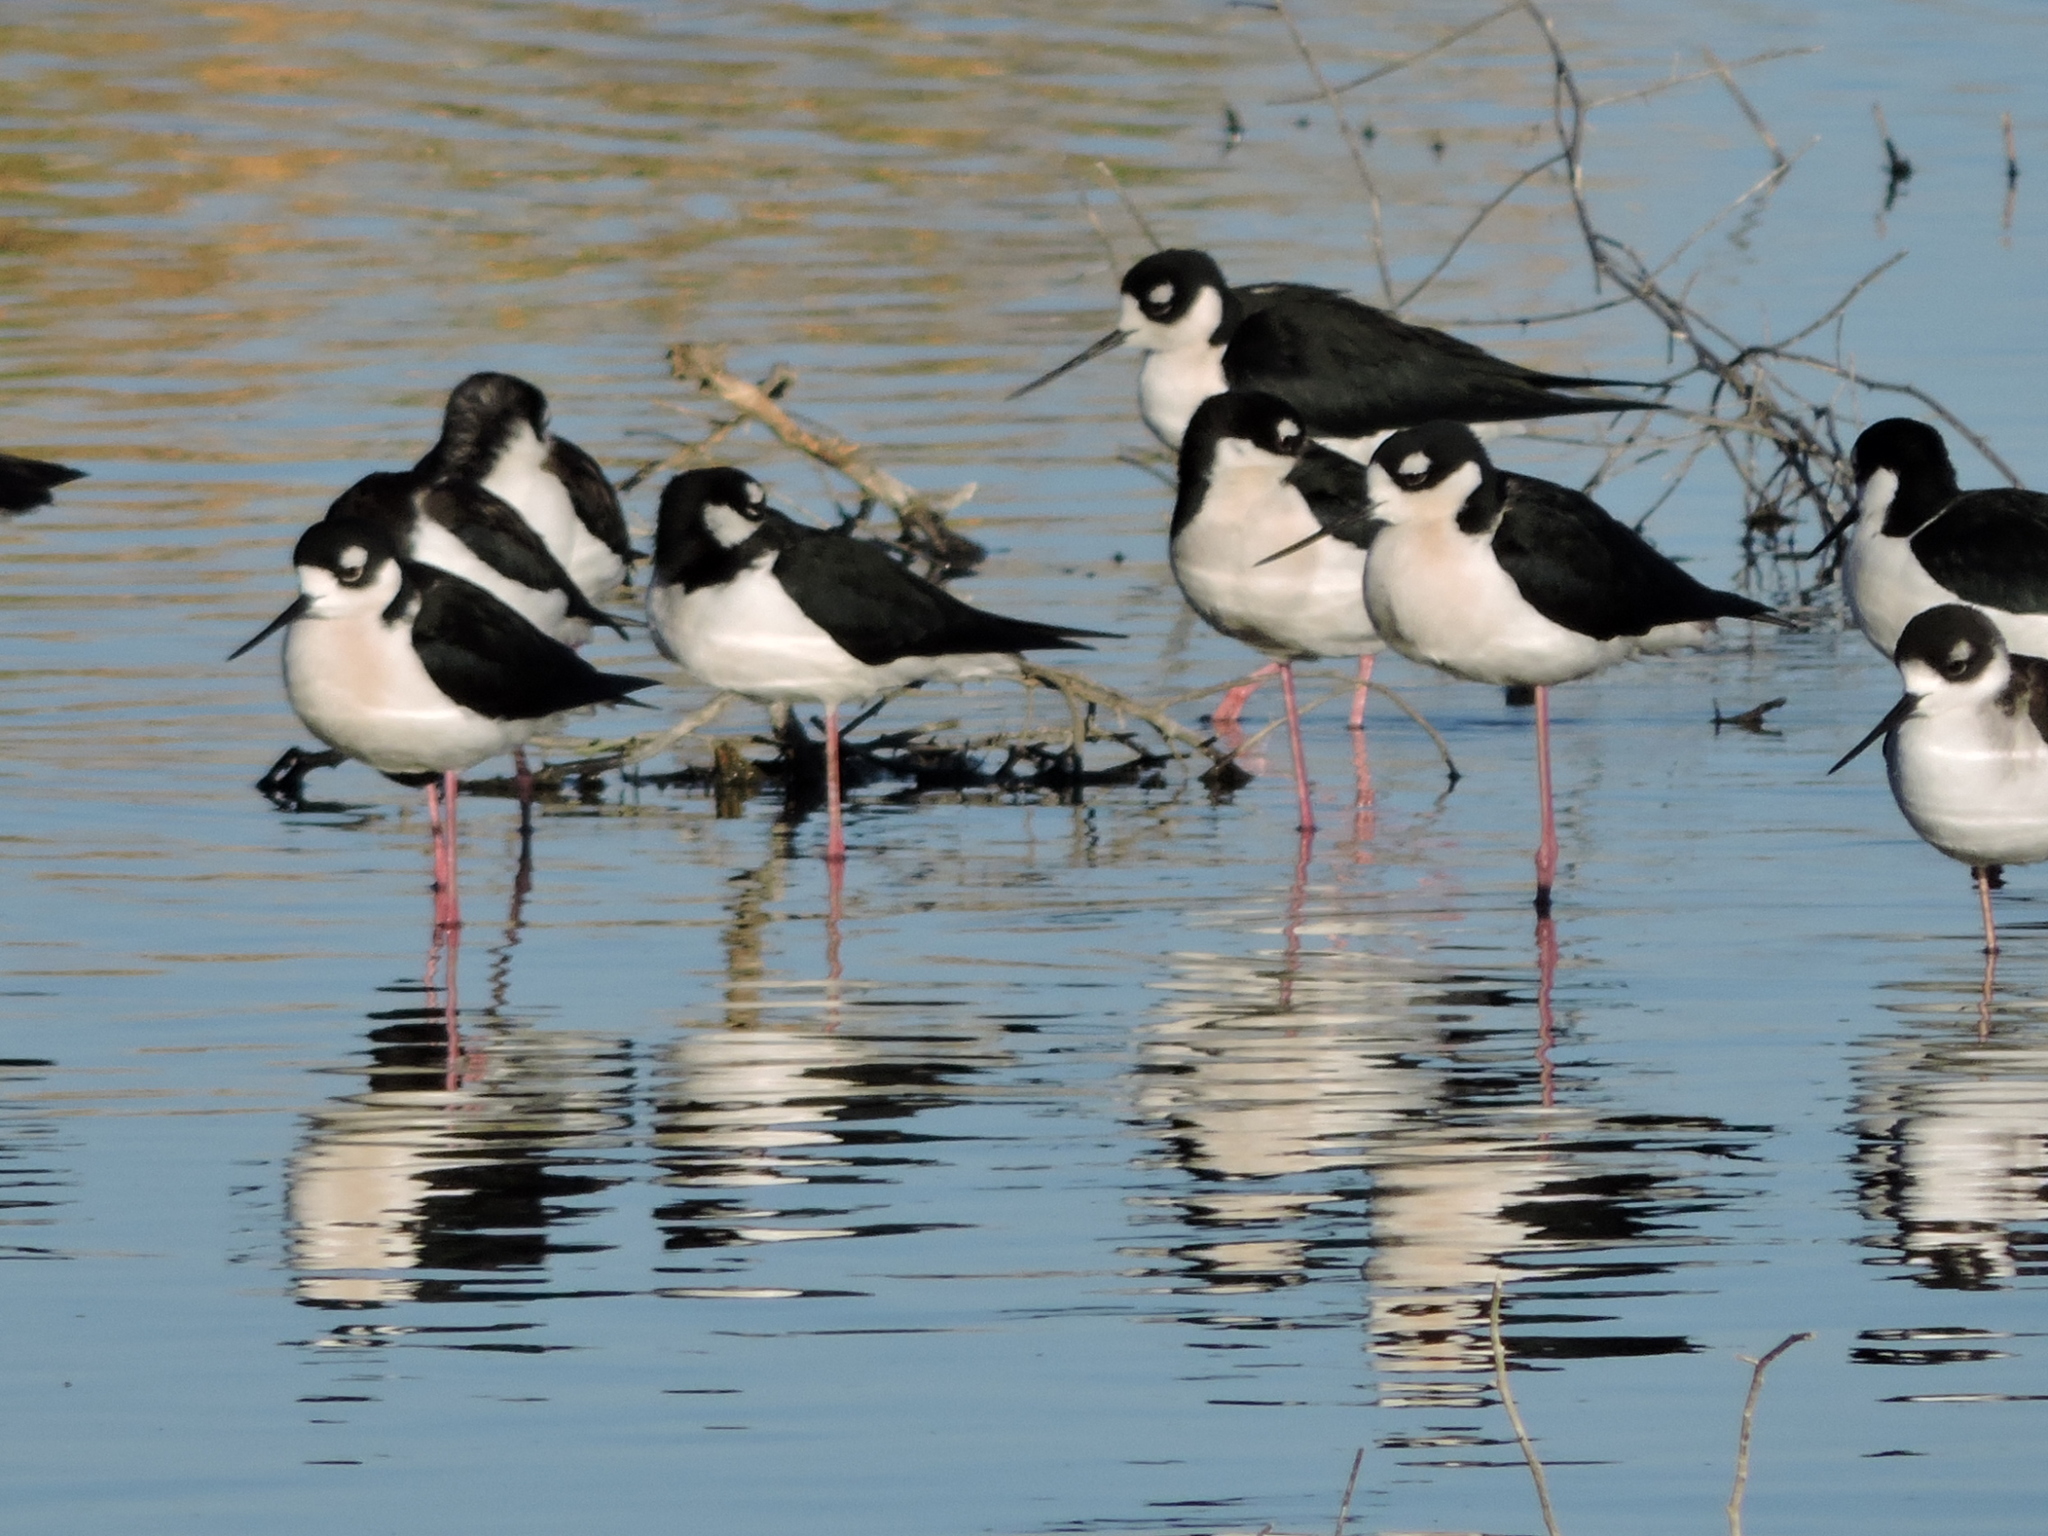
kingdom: Animalia
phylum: Chordata
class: Aves
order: Charadriiformes
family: Recurvirostridae
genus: Himantopus
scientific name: Himantopus mexicanus
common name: Black-necked stilt
